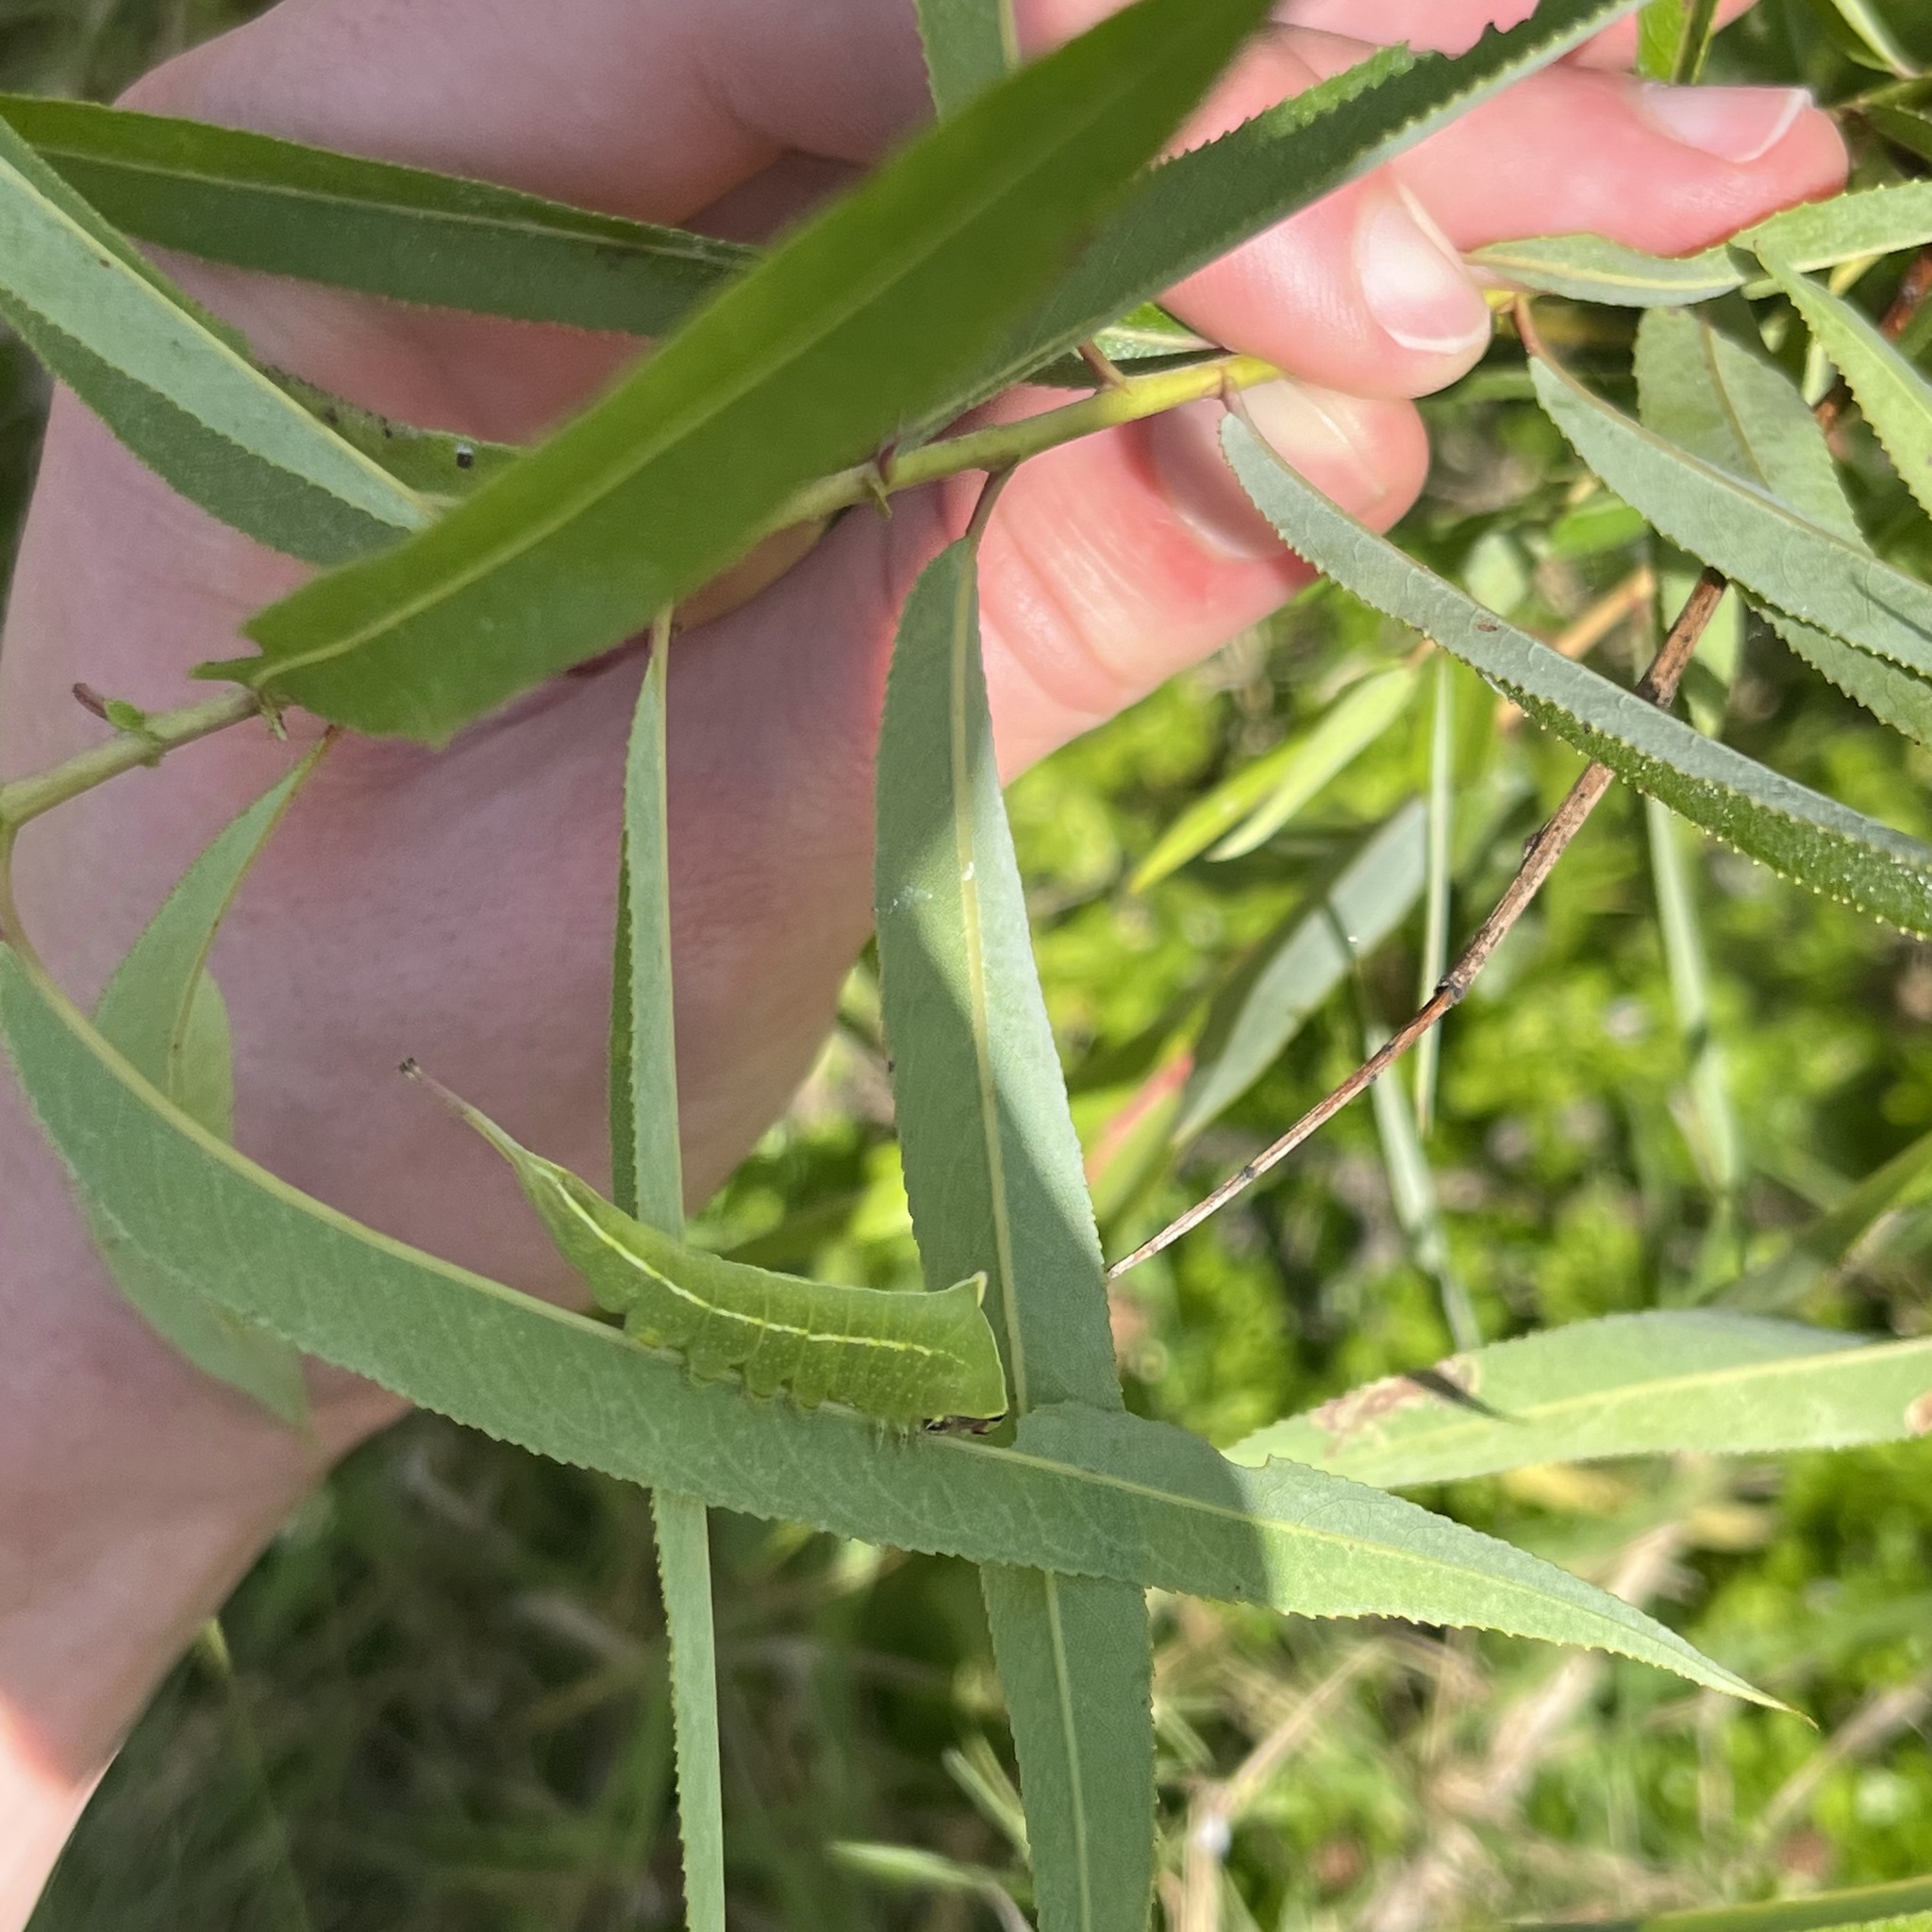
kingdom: Animalia
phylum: Arthropoda
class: Insecta
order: Lepidoptera
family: Notodontidae
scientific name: Notodontidae
